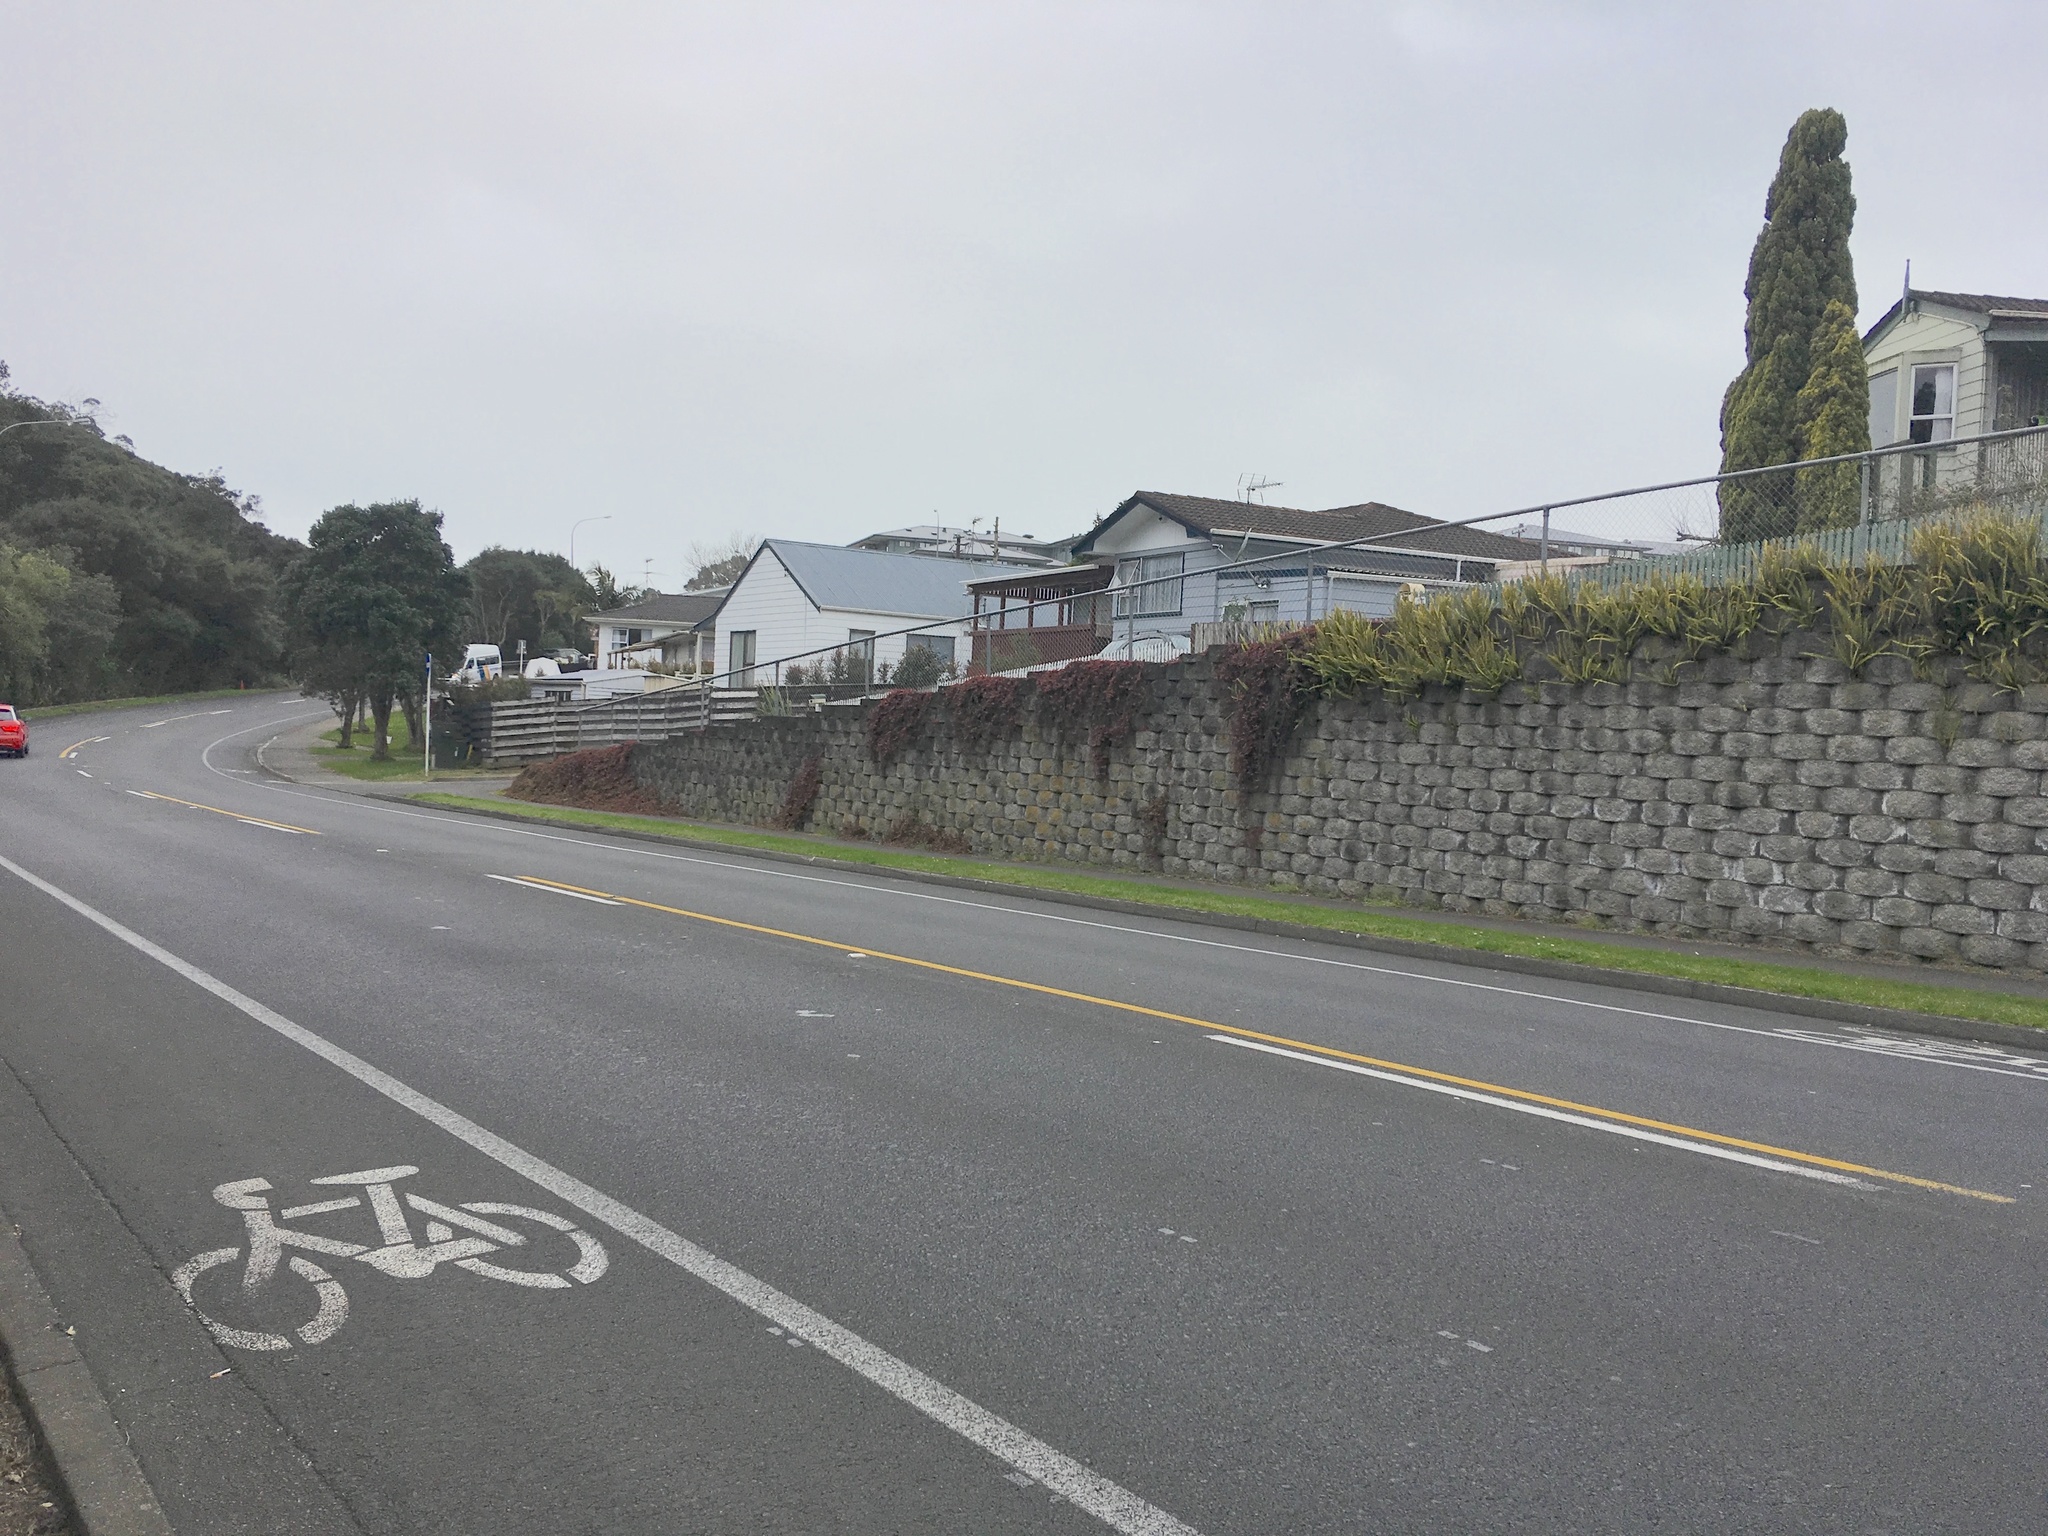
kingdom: Plantae
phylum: Tracheophyta
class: Polypodiopsida
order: Polypodiales
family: Nephrolepidaceae
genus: Nephrolepis
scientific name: Nephrolepis cordifolia
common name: Narrow swordfern
